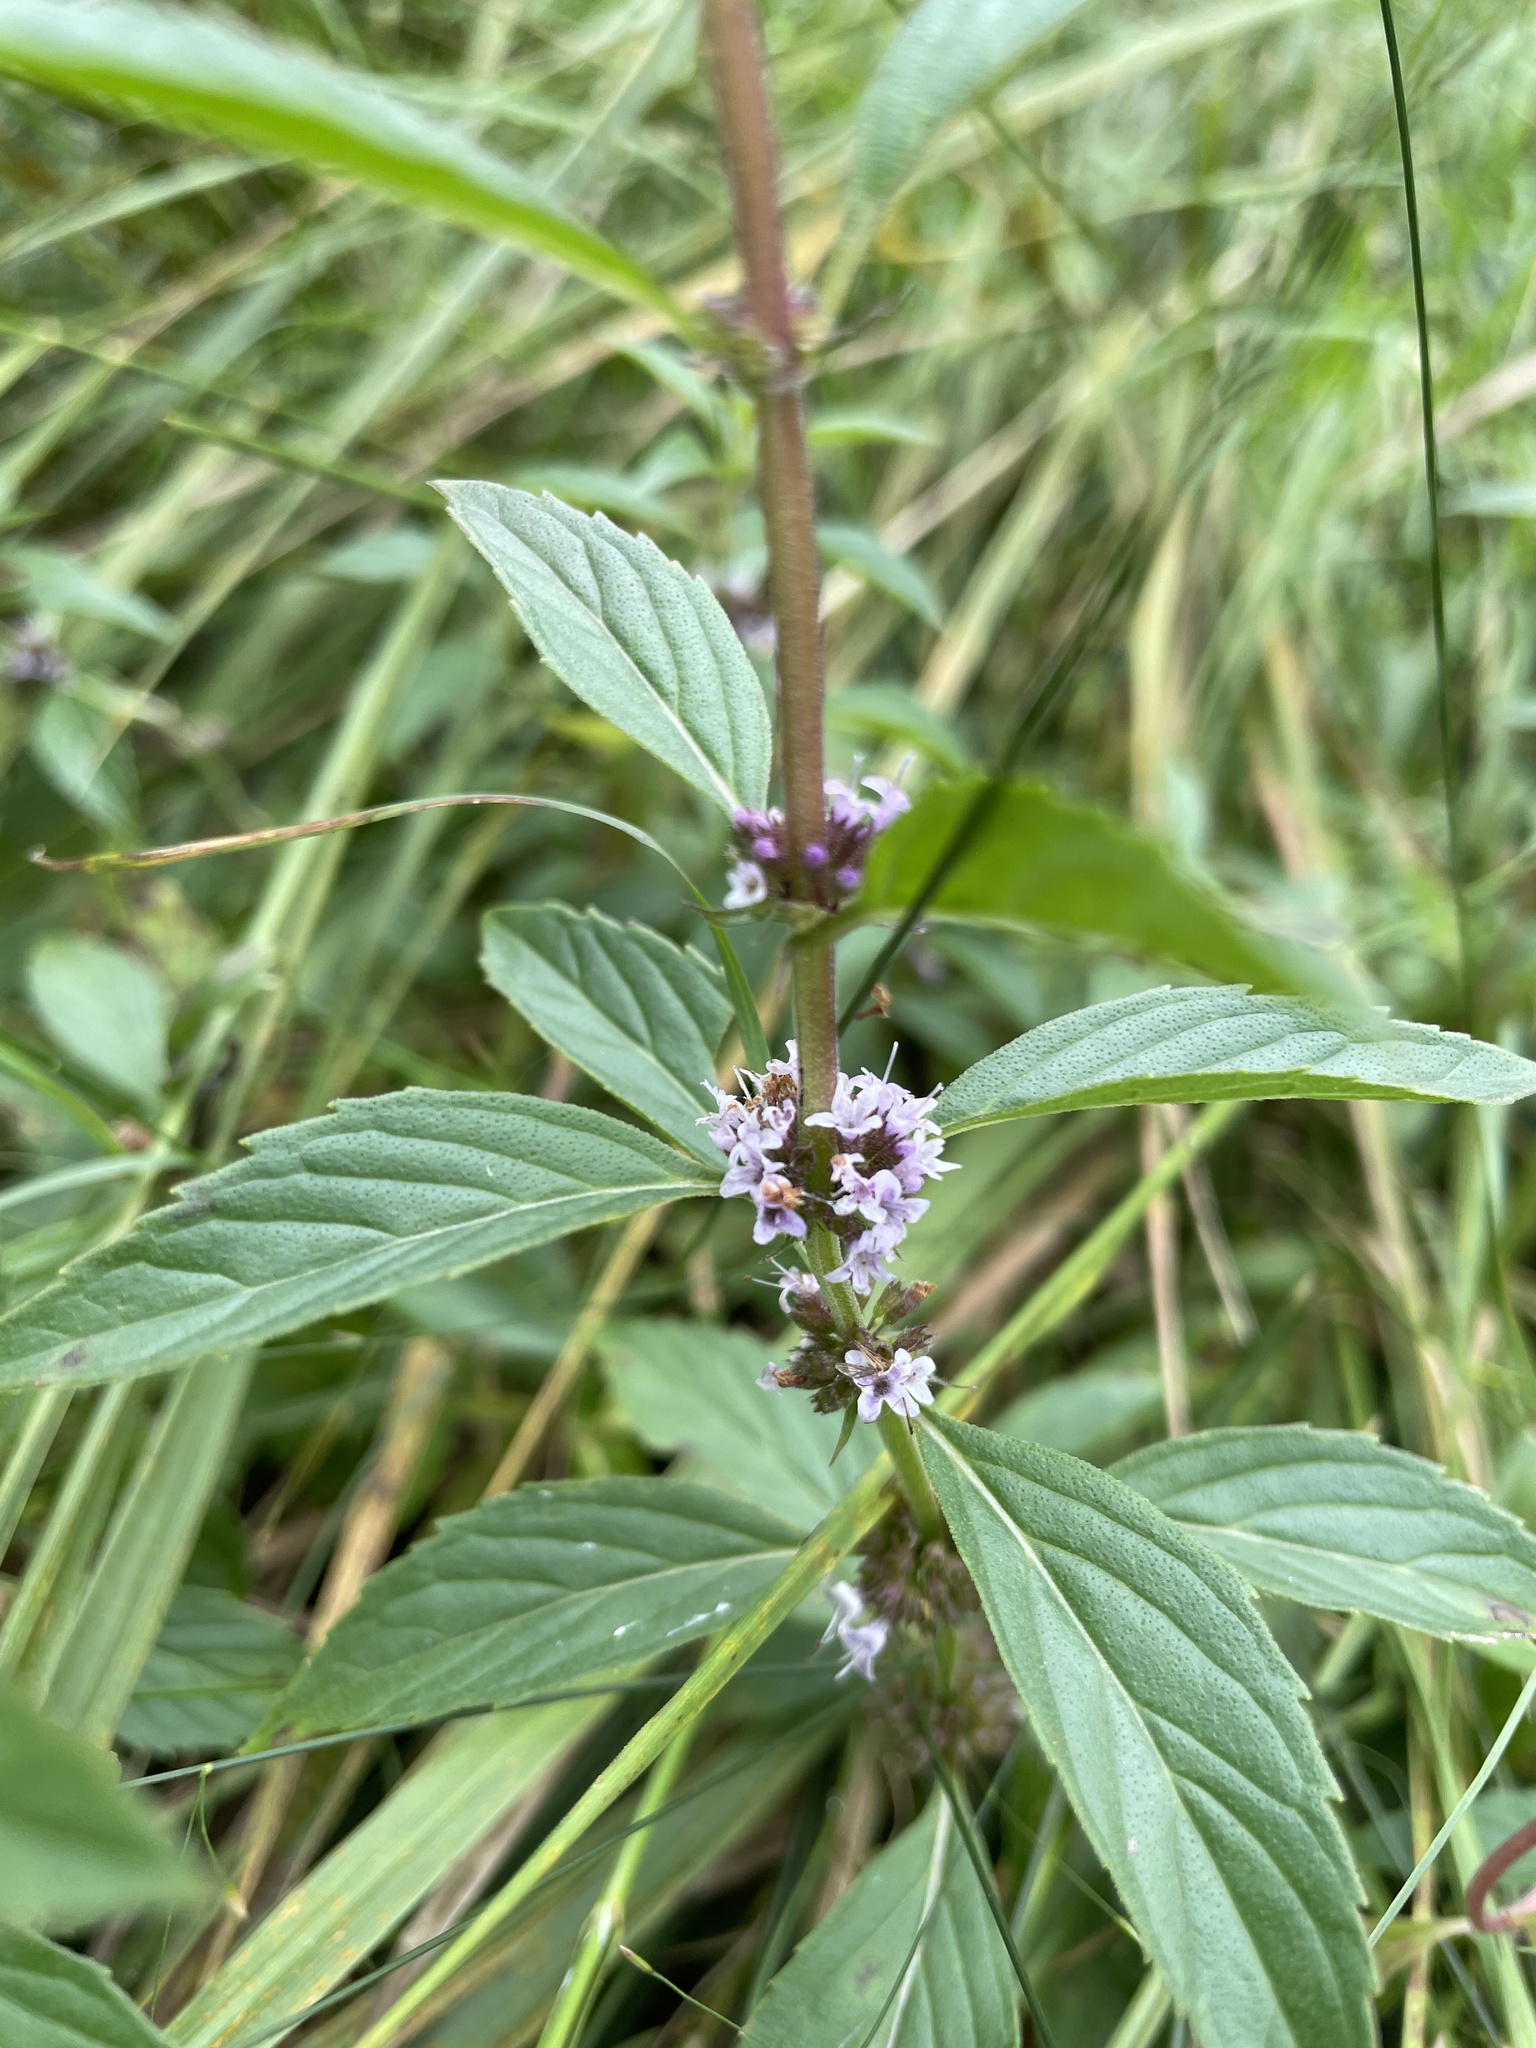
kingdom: Plantae
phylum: Tracheophyta
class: Magnoliopsida
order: Lamiales
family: Lamiaceae
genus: Mentha
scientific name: Mentha canadensis
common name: American corn mint
